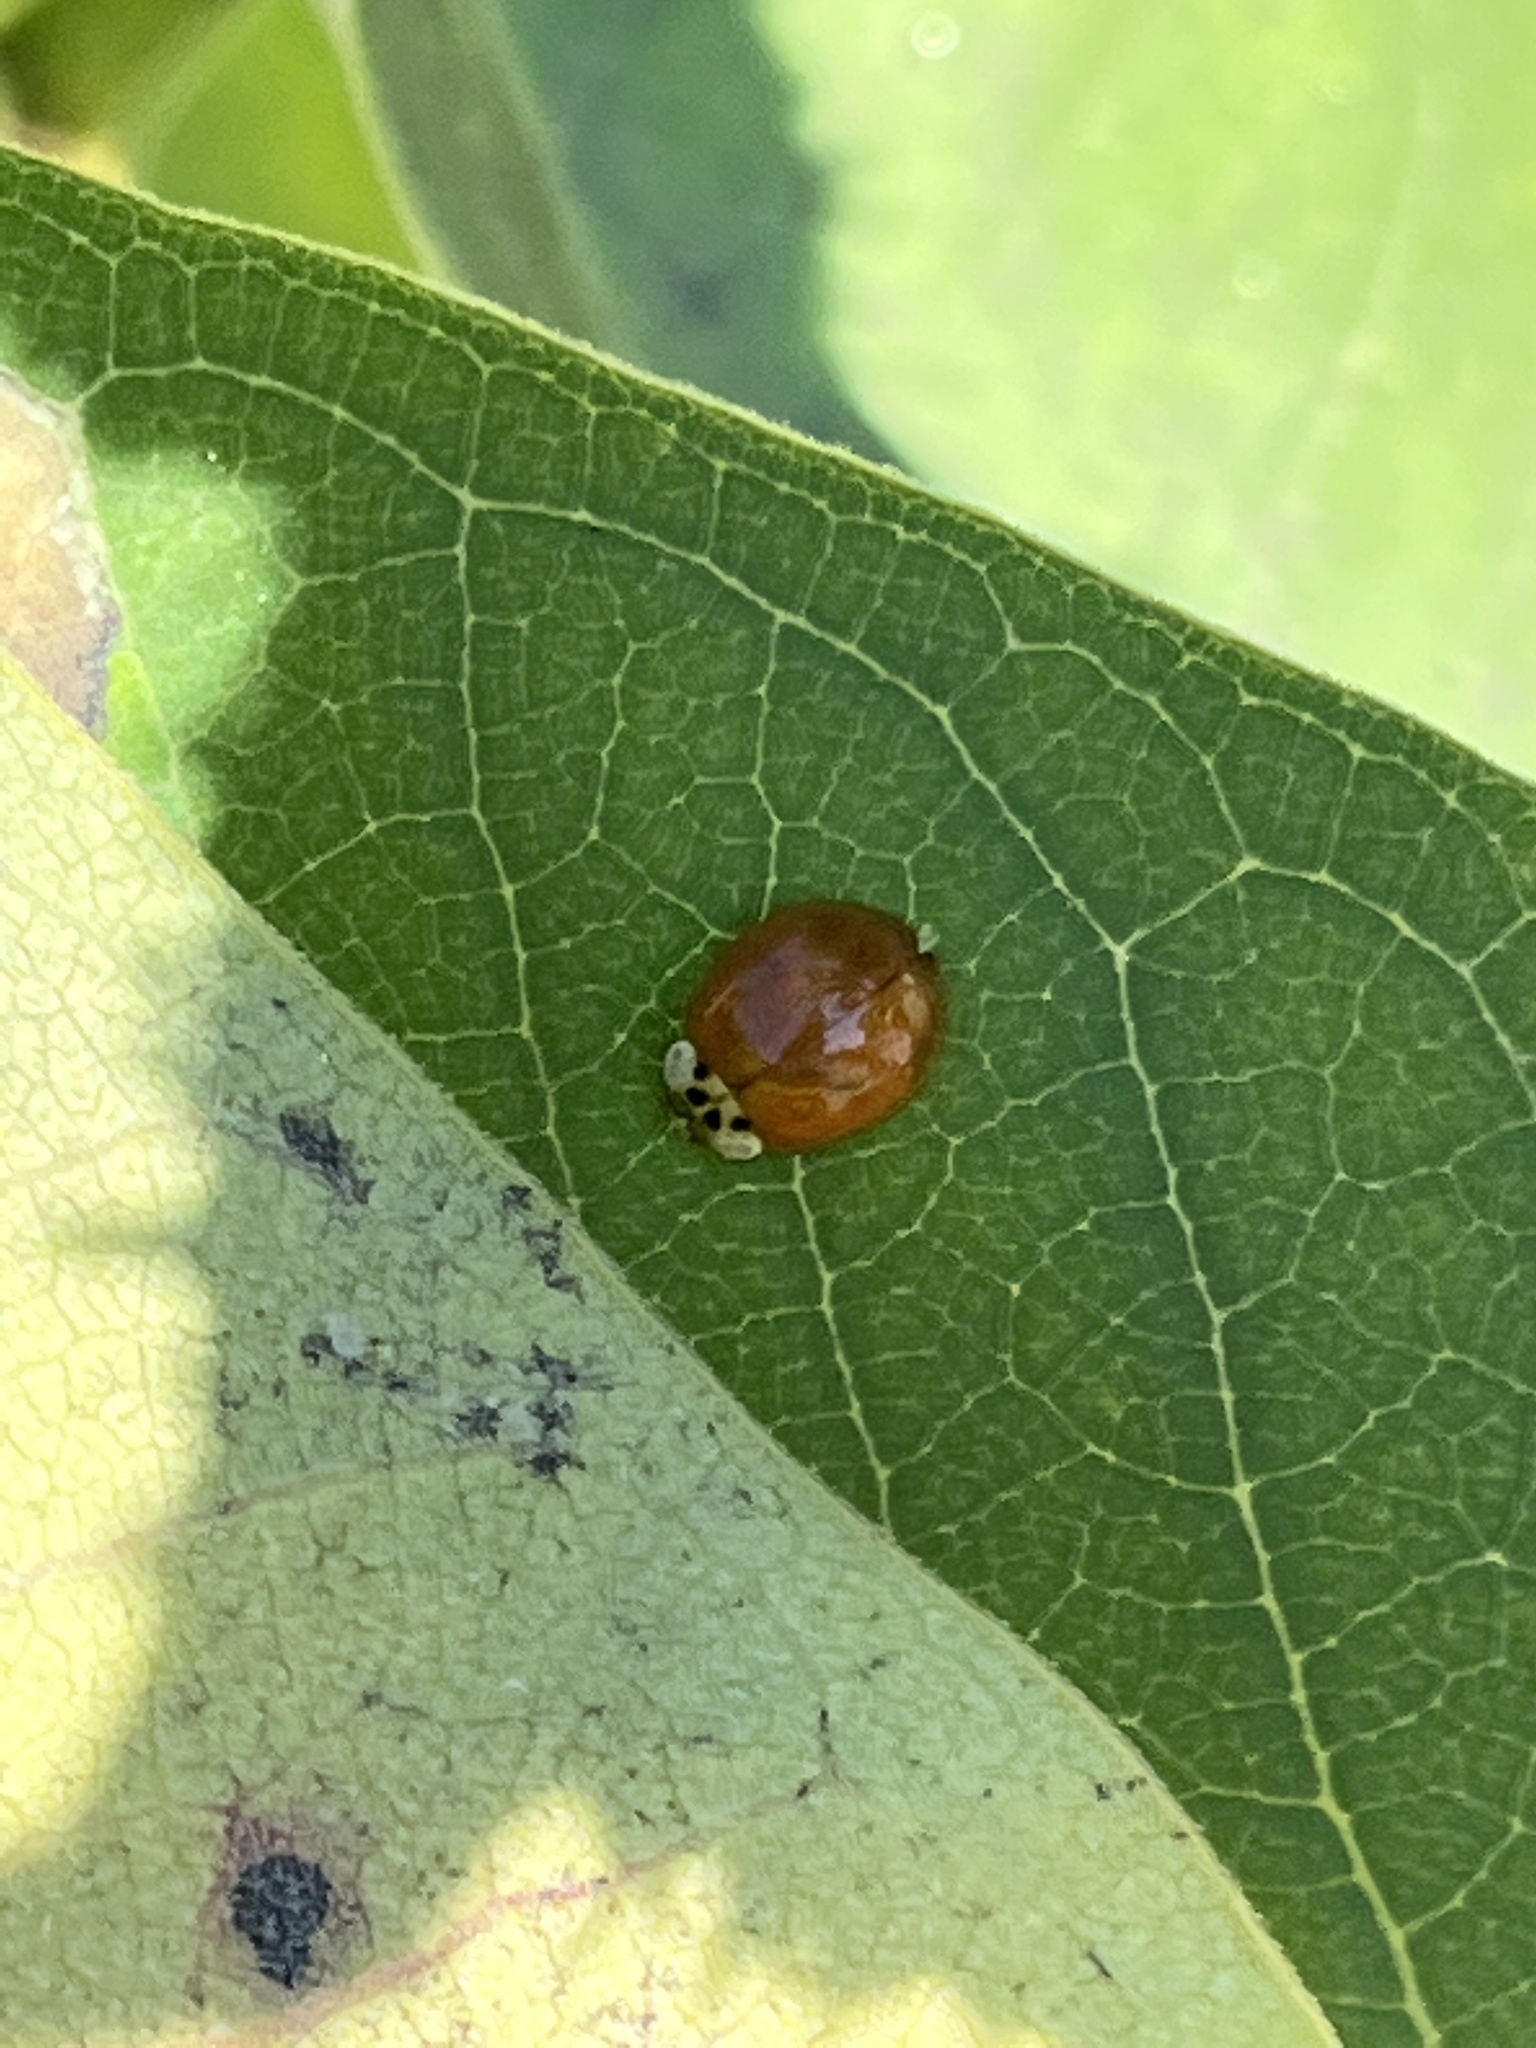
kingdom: Animalia
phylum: Arthropoda
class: Insecta
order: Coleoptera
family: Coccinellidae
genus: Harmonia
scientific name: Harmonia axyridis
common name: Harlequin ladybird
